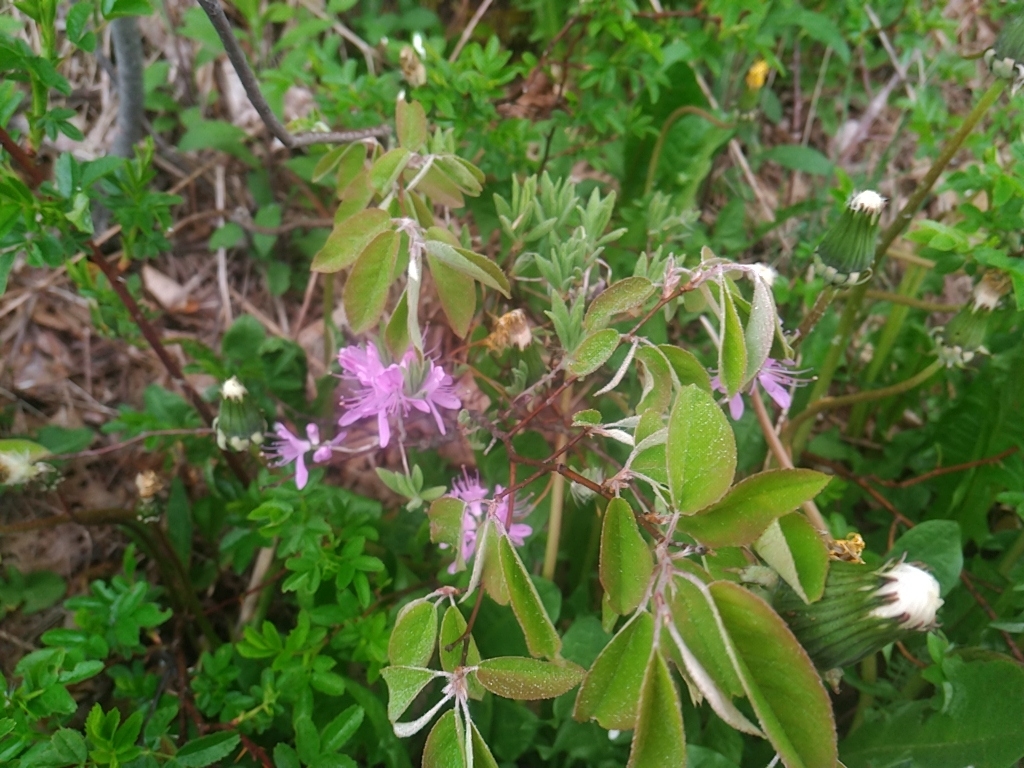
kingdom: Plantae
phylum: Tracheophyta
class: Magnoliopsida
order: Ericales
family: Ericaceae
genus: Rhododendron
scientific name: Rhododendron canadense
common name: Rhodora
